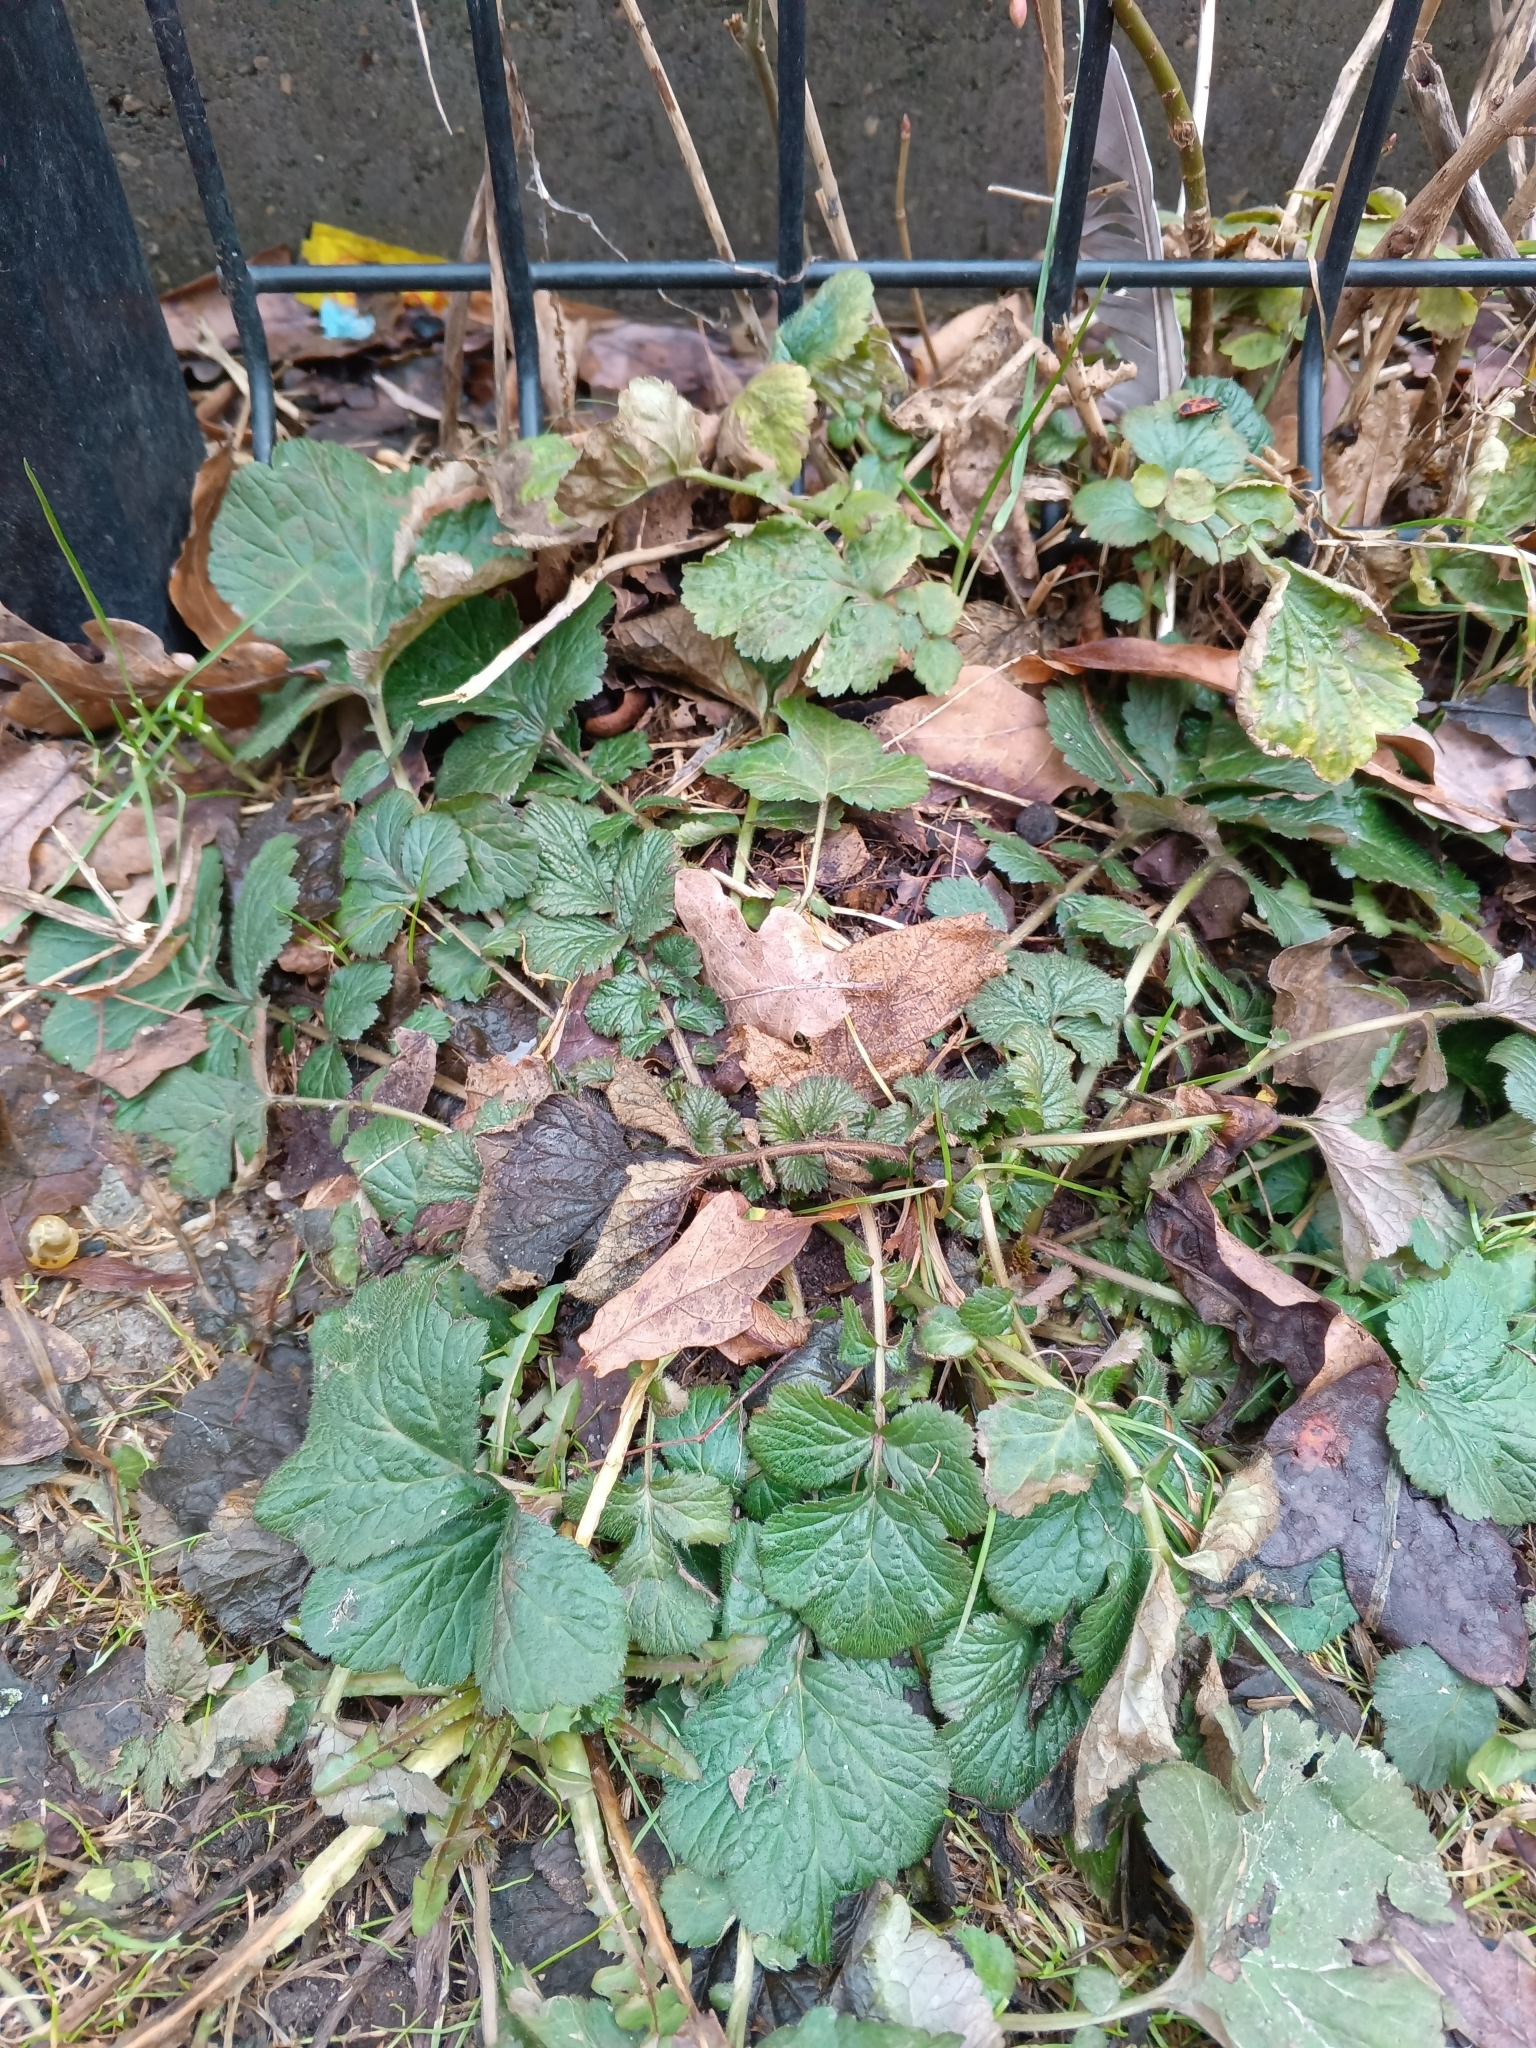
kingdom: Plantae
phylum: Tracheophyta
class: Magnoliopsida
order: Rosales
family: Rosaceae
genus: Geum
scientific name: Geum urbanum
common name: Wood avens
